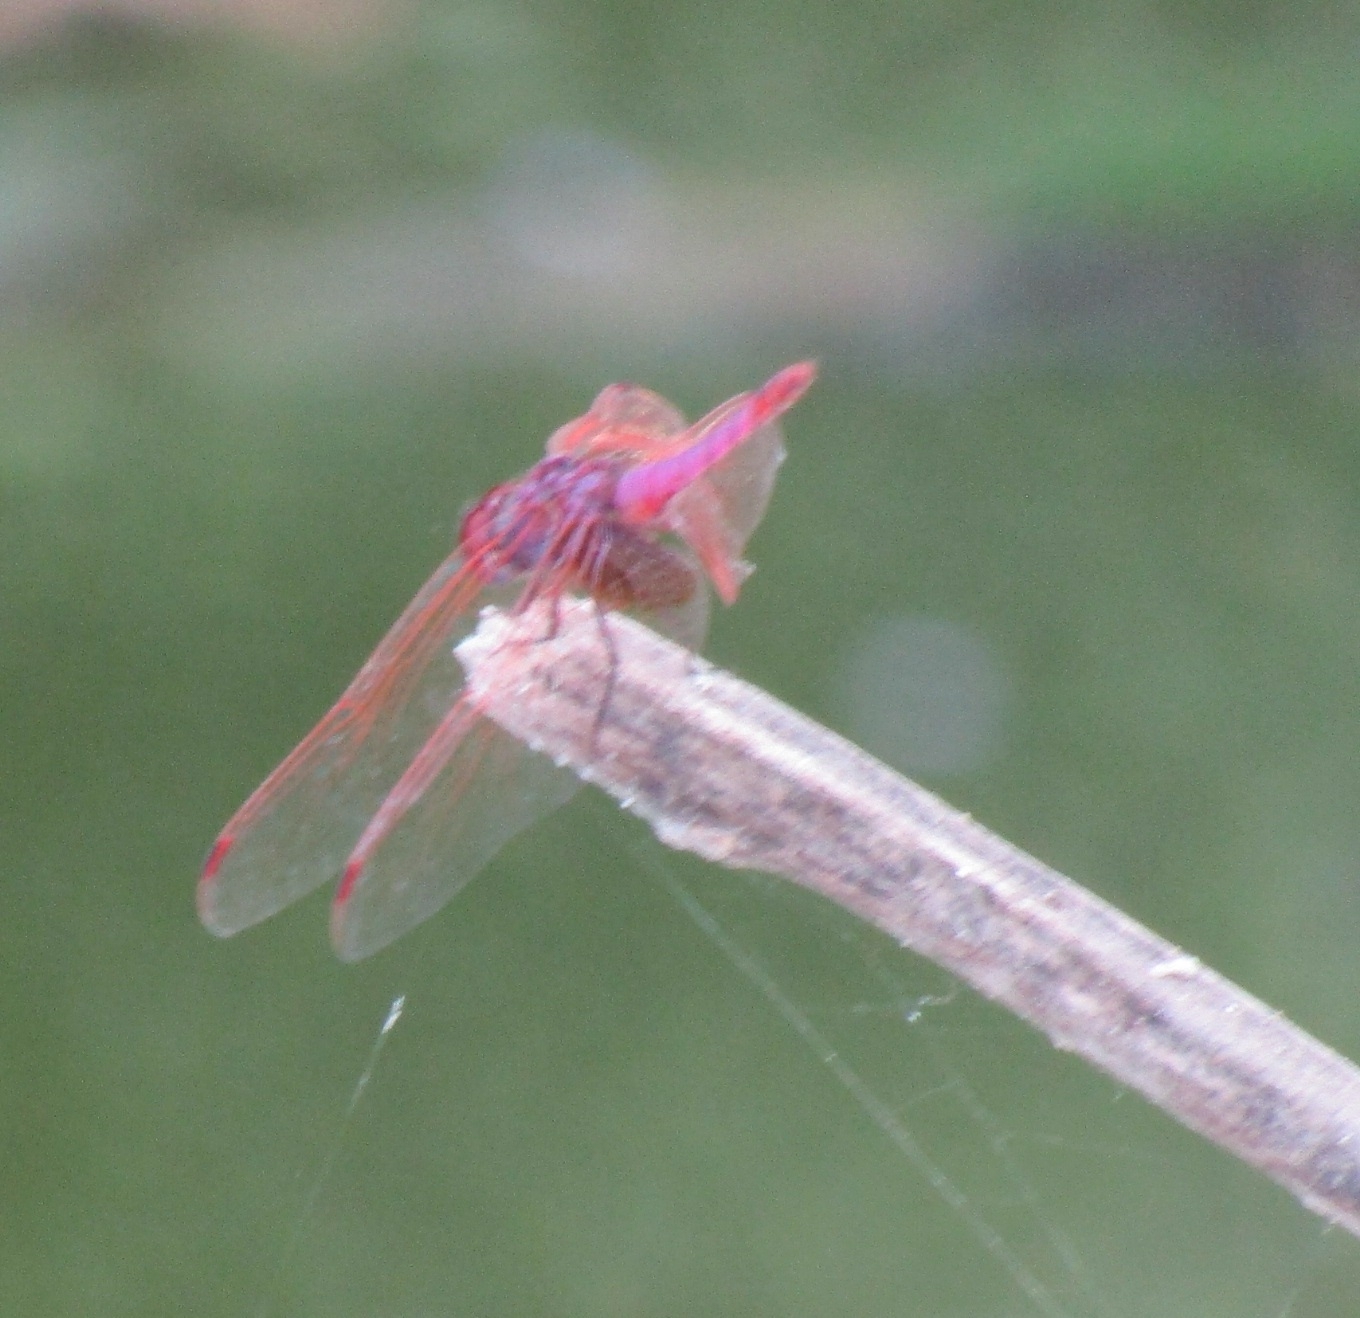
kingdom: Animalia
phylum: Arthropoda
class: Insecta
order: Odonata
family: Libellulidae
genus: Trithemis
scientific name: Trithemis annulata
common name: Violet dropwing
